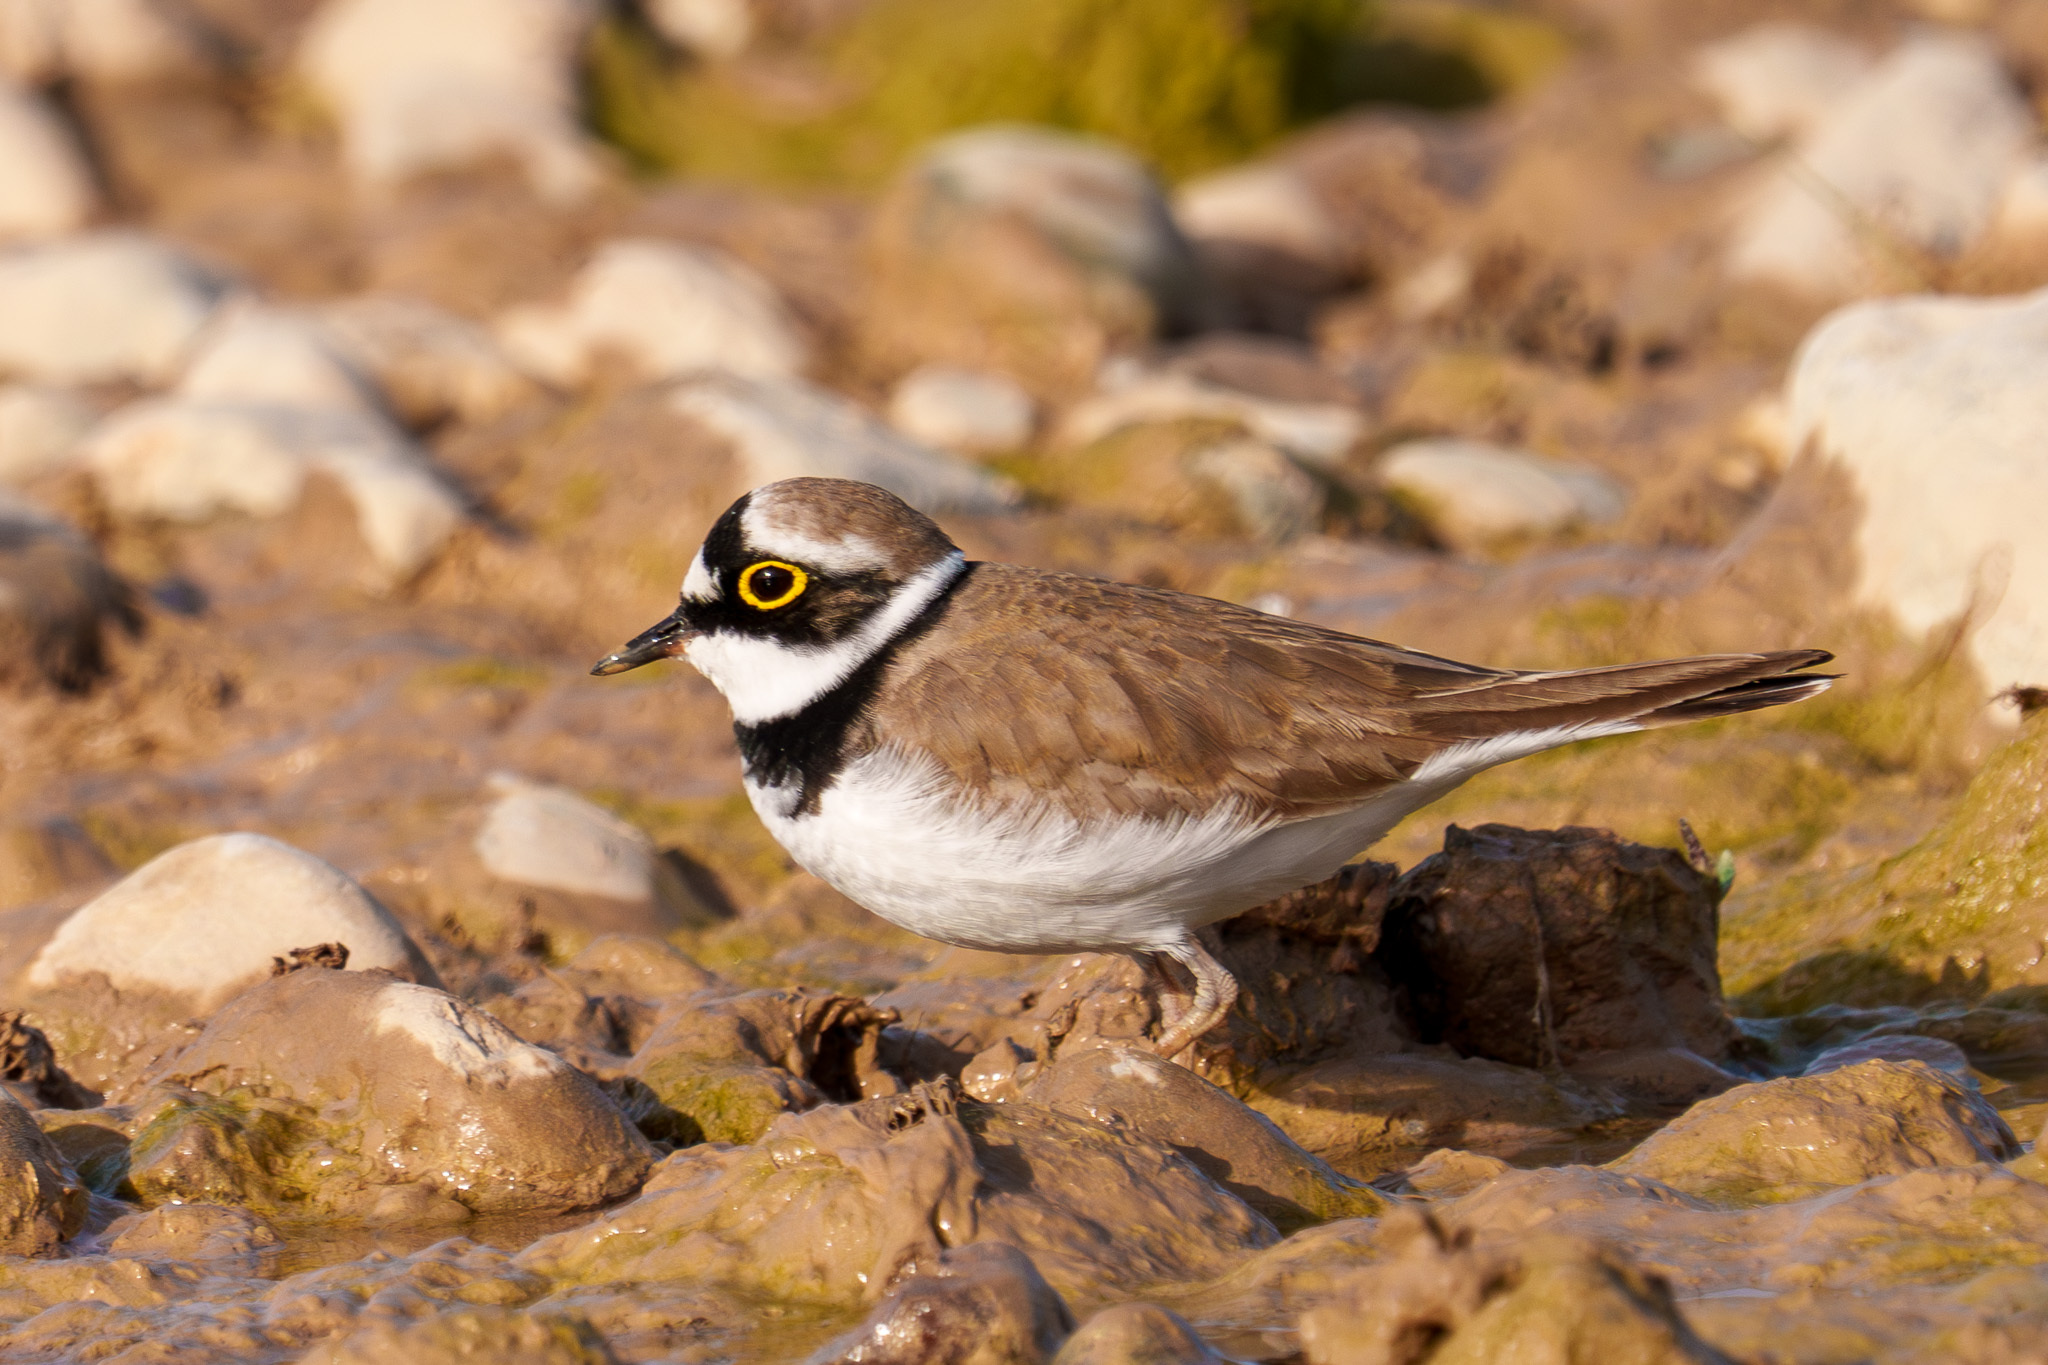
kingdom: Animalia
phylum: Chordata
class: Aves
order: Charadriiformes
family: Charadriidae
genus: Charadrius
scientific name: Charadrius dubius
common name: Little ringed plover
